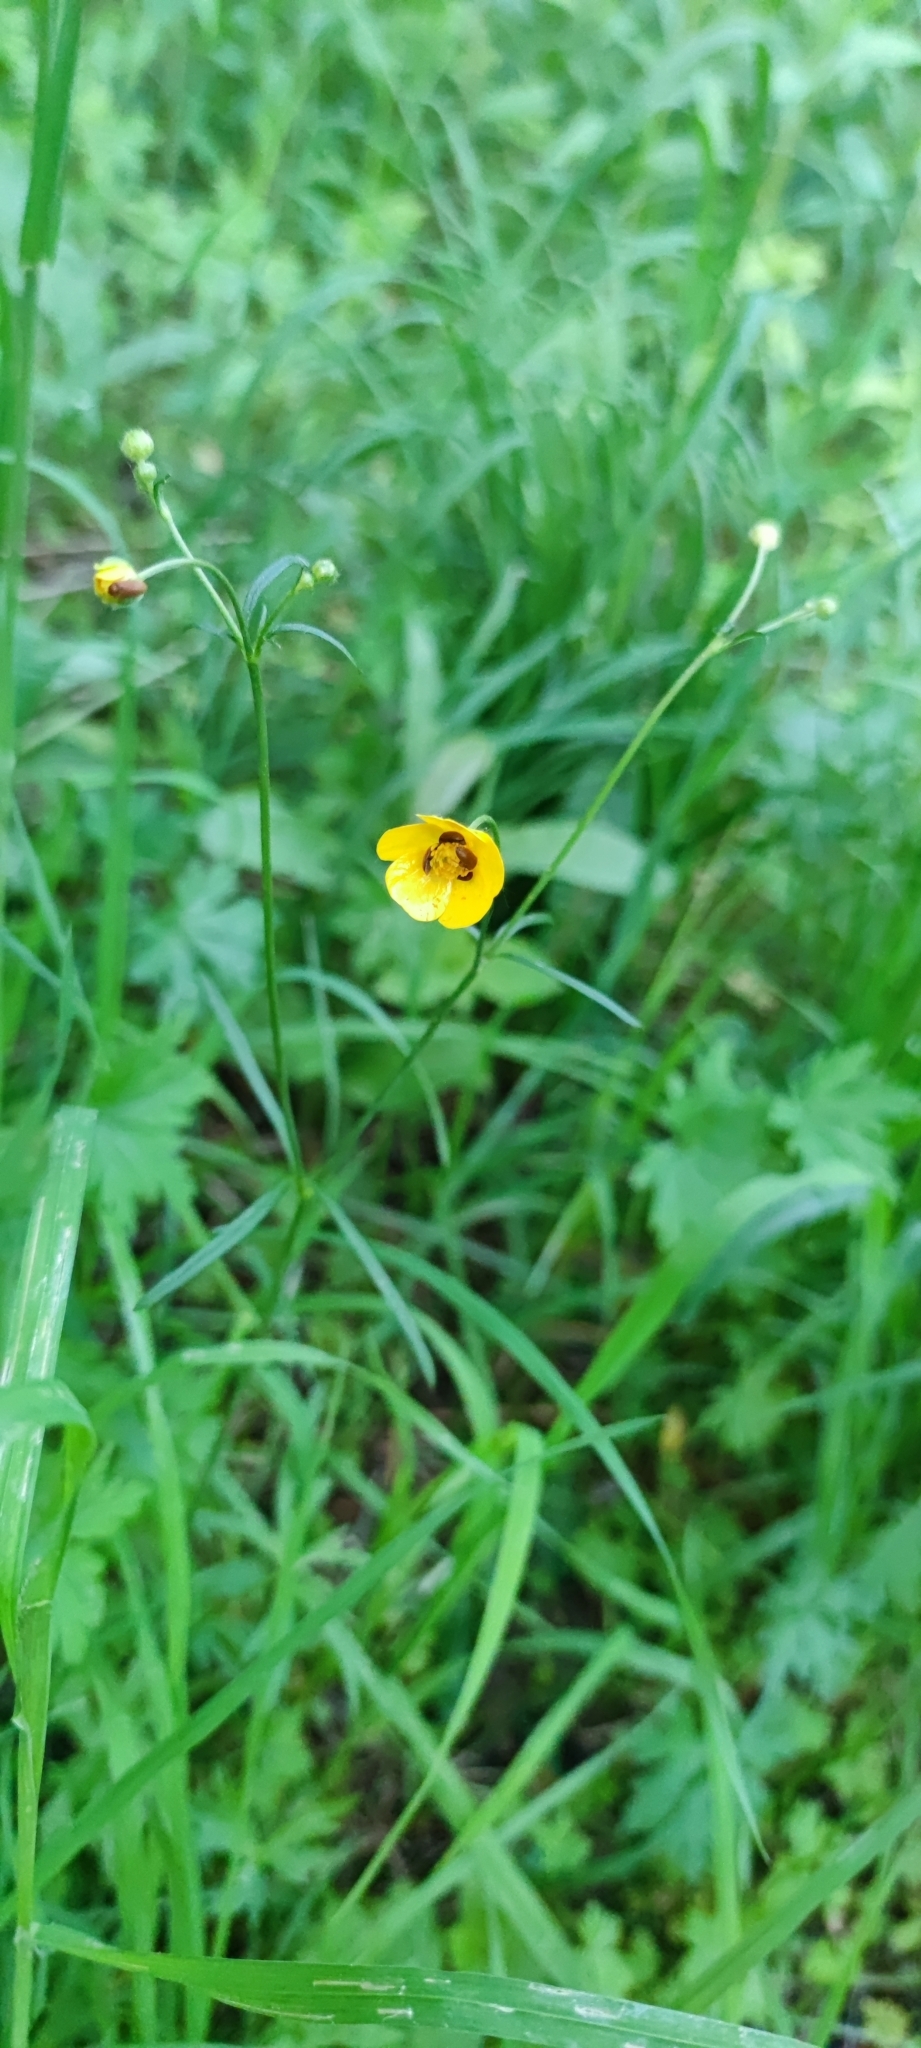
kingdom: Plantae
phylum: Tracheophyta
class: Magnoliopsida
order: Ranunculales
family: Ranunculaceae
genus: Ranunculus
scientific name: Ranunculus acris
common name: Meadow buttercup
